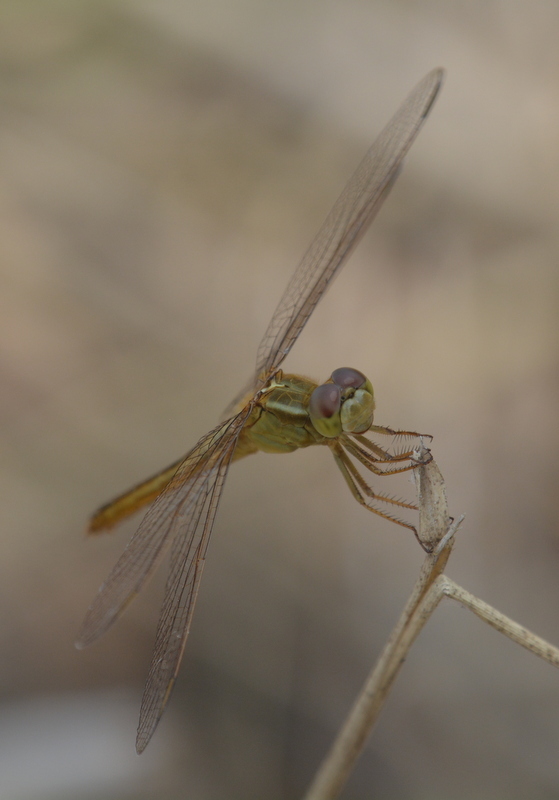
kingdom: Animalia
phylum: Arthropoda
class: Insecta
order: Odonata
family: Libellulidae
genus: Crocothemis
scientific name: Crocothemis servilia
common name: Scarlet skimmer
